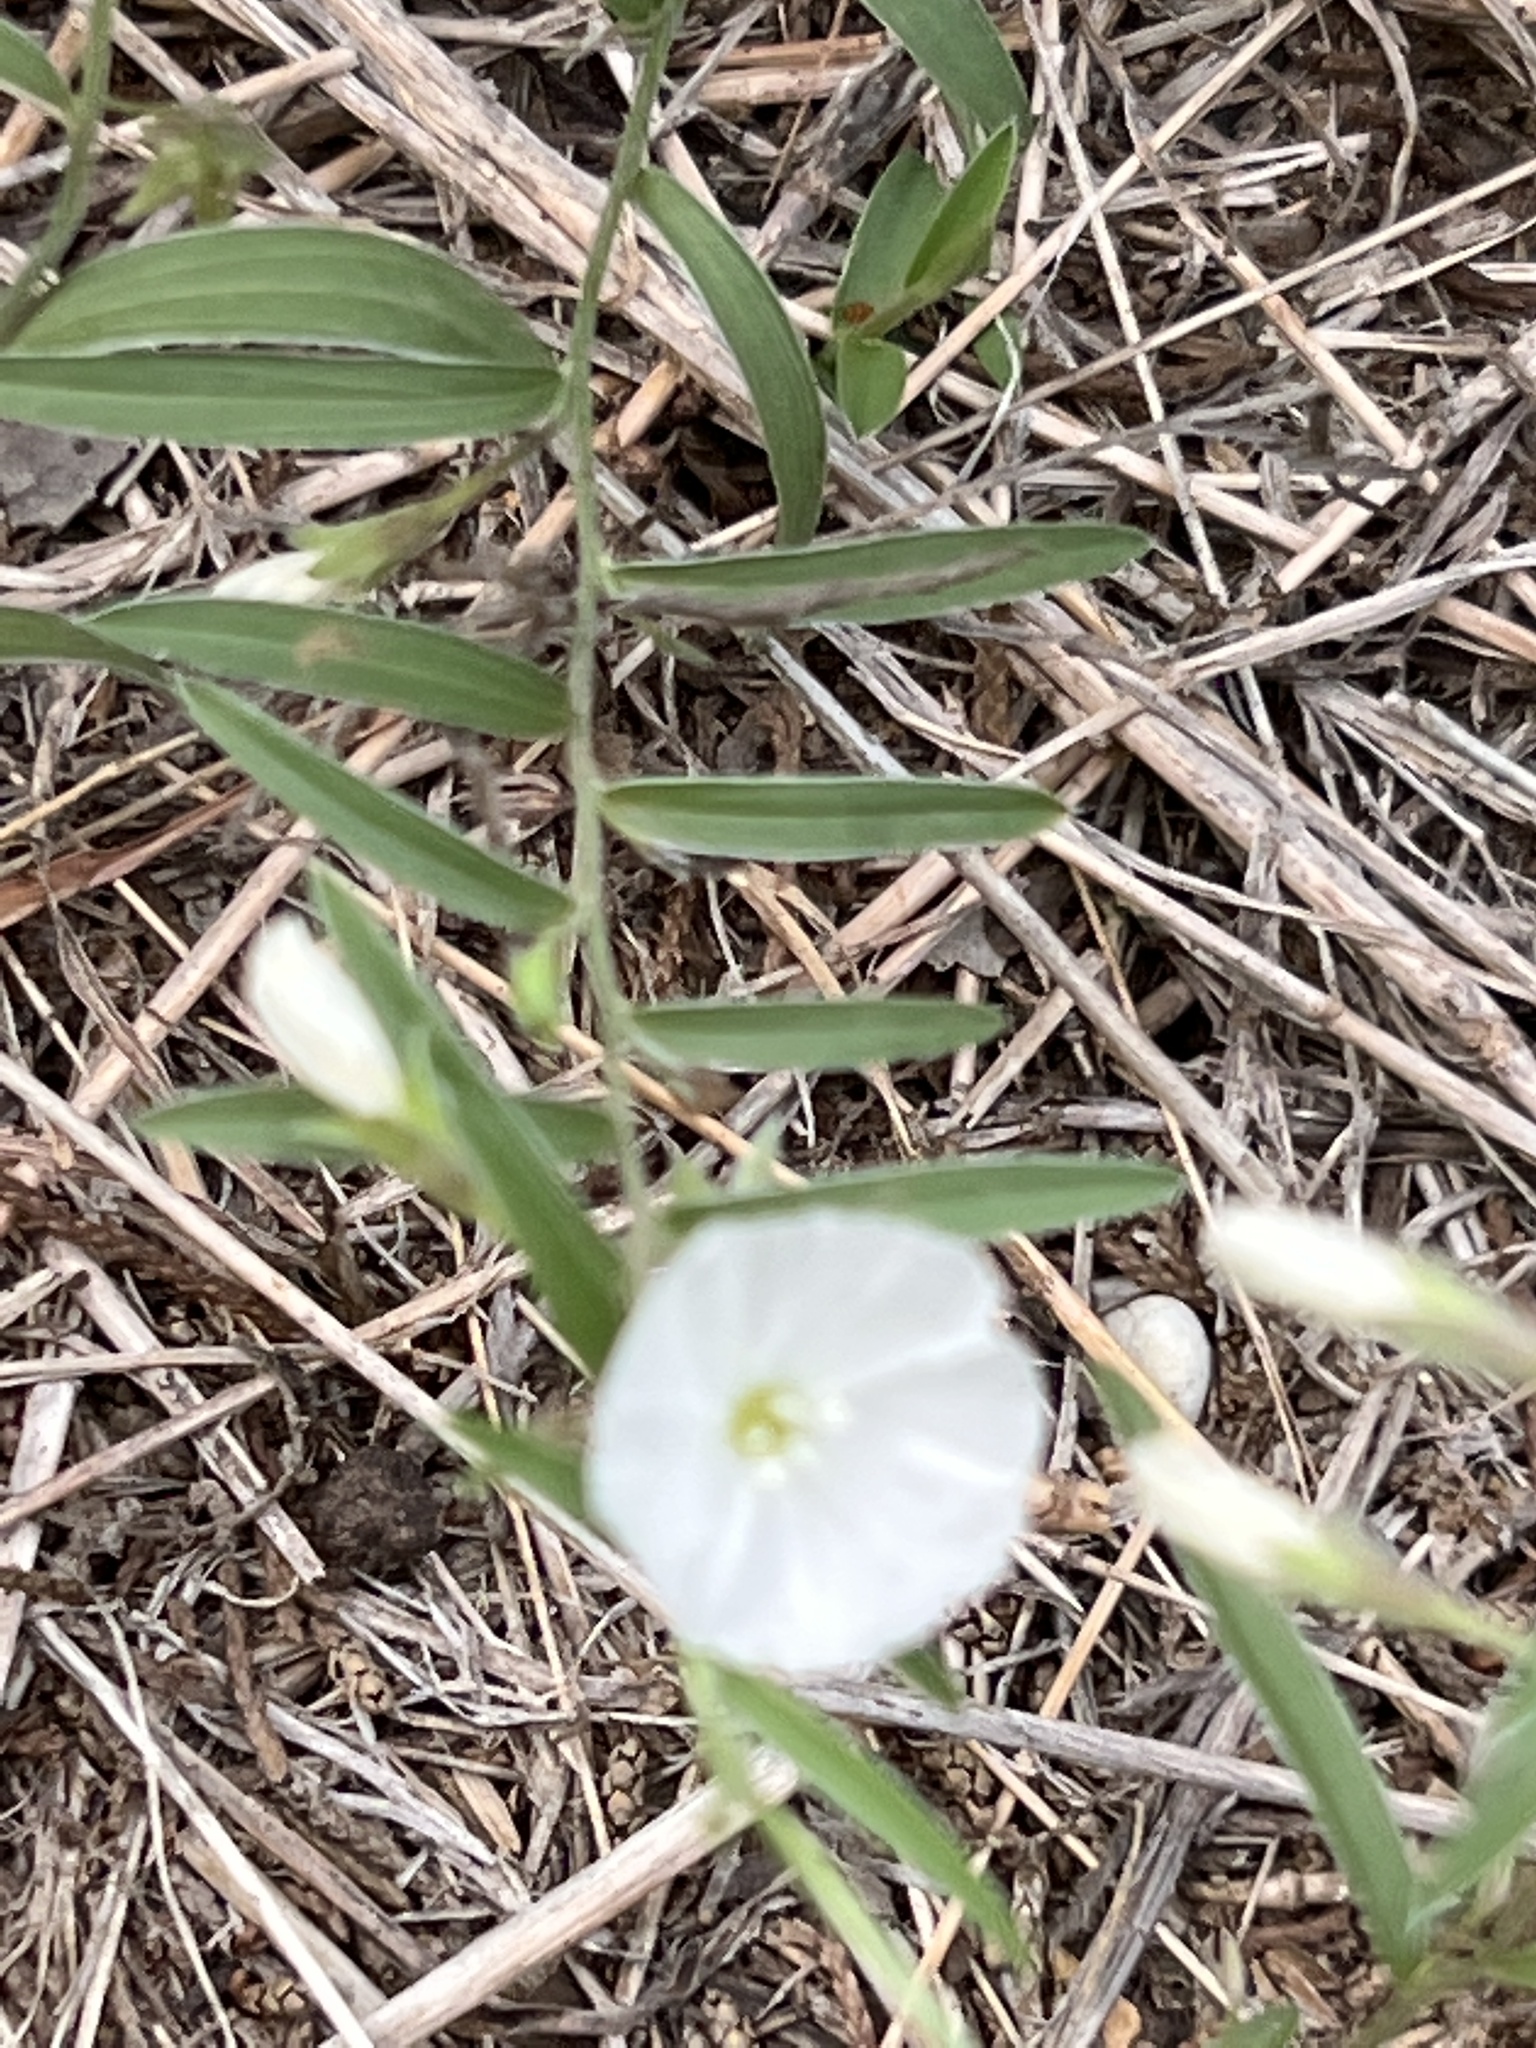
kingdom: Plantae
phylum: Tracheophyta
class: Magnoliopsida
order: Solanales
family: Convolvulaceae
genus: Evolvulus
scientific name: Evolvulus sericeus
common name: Blue dots
